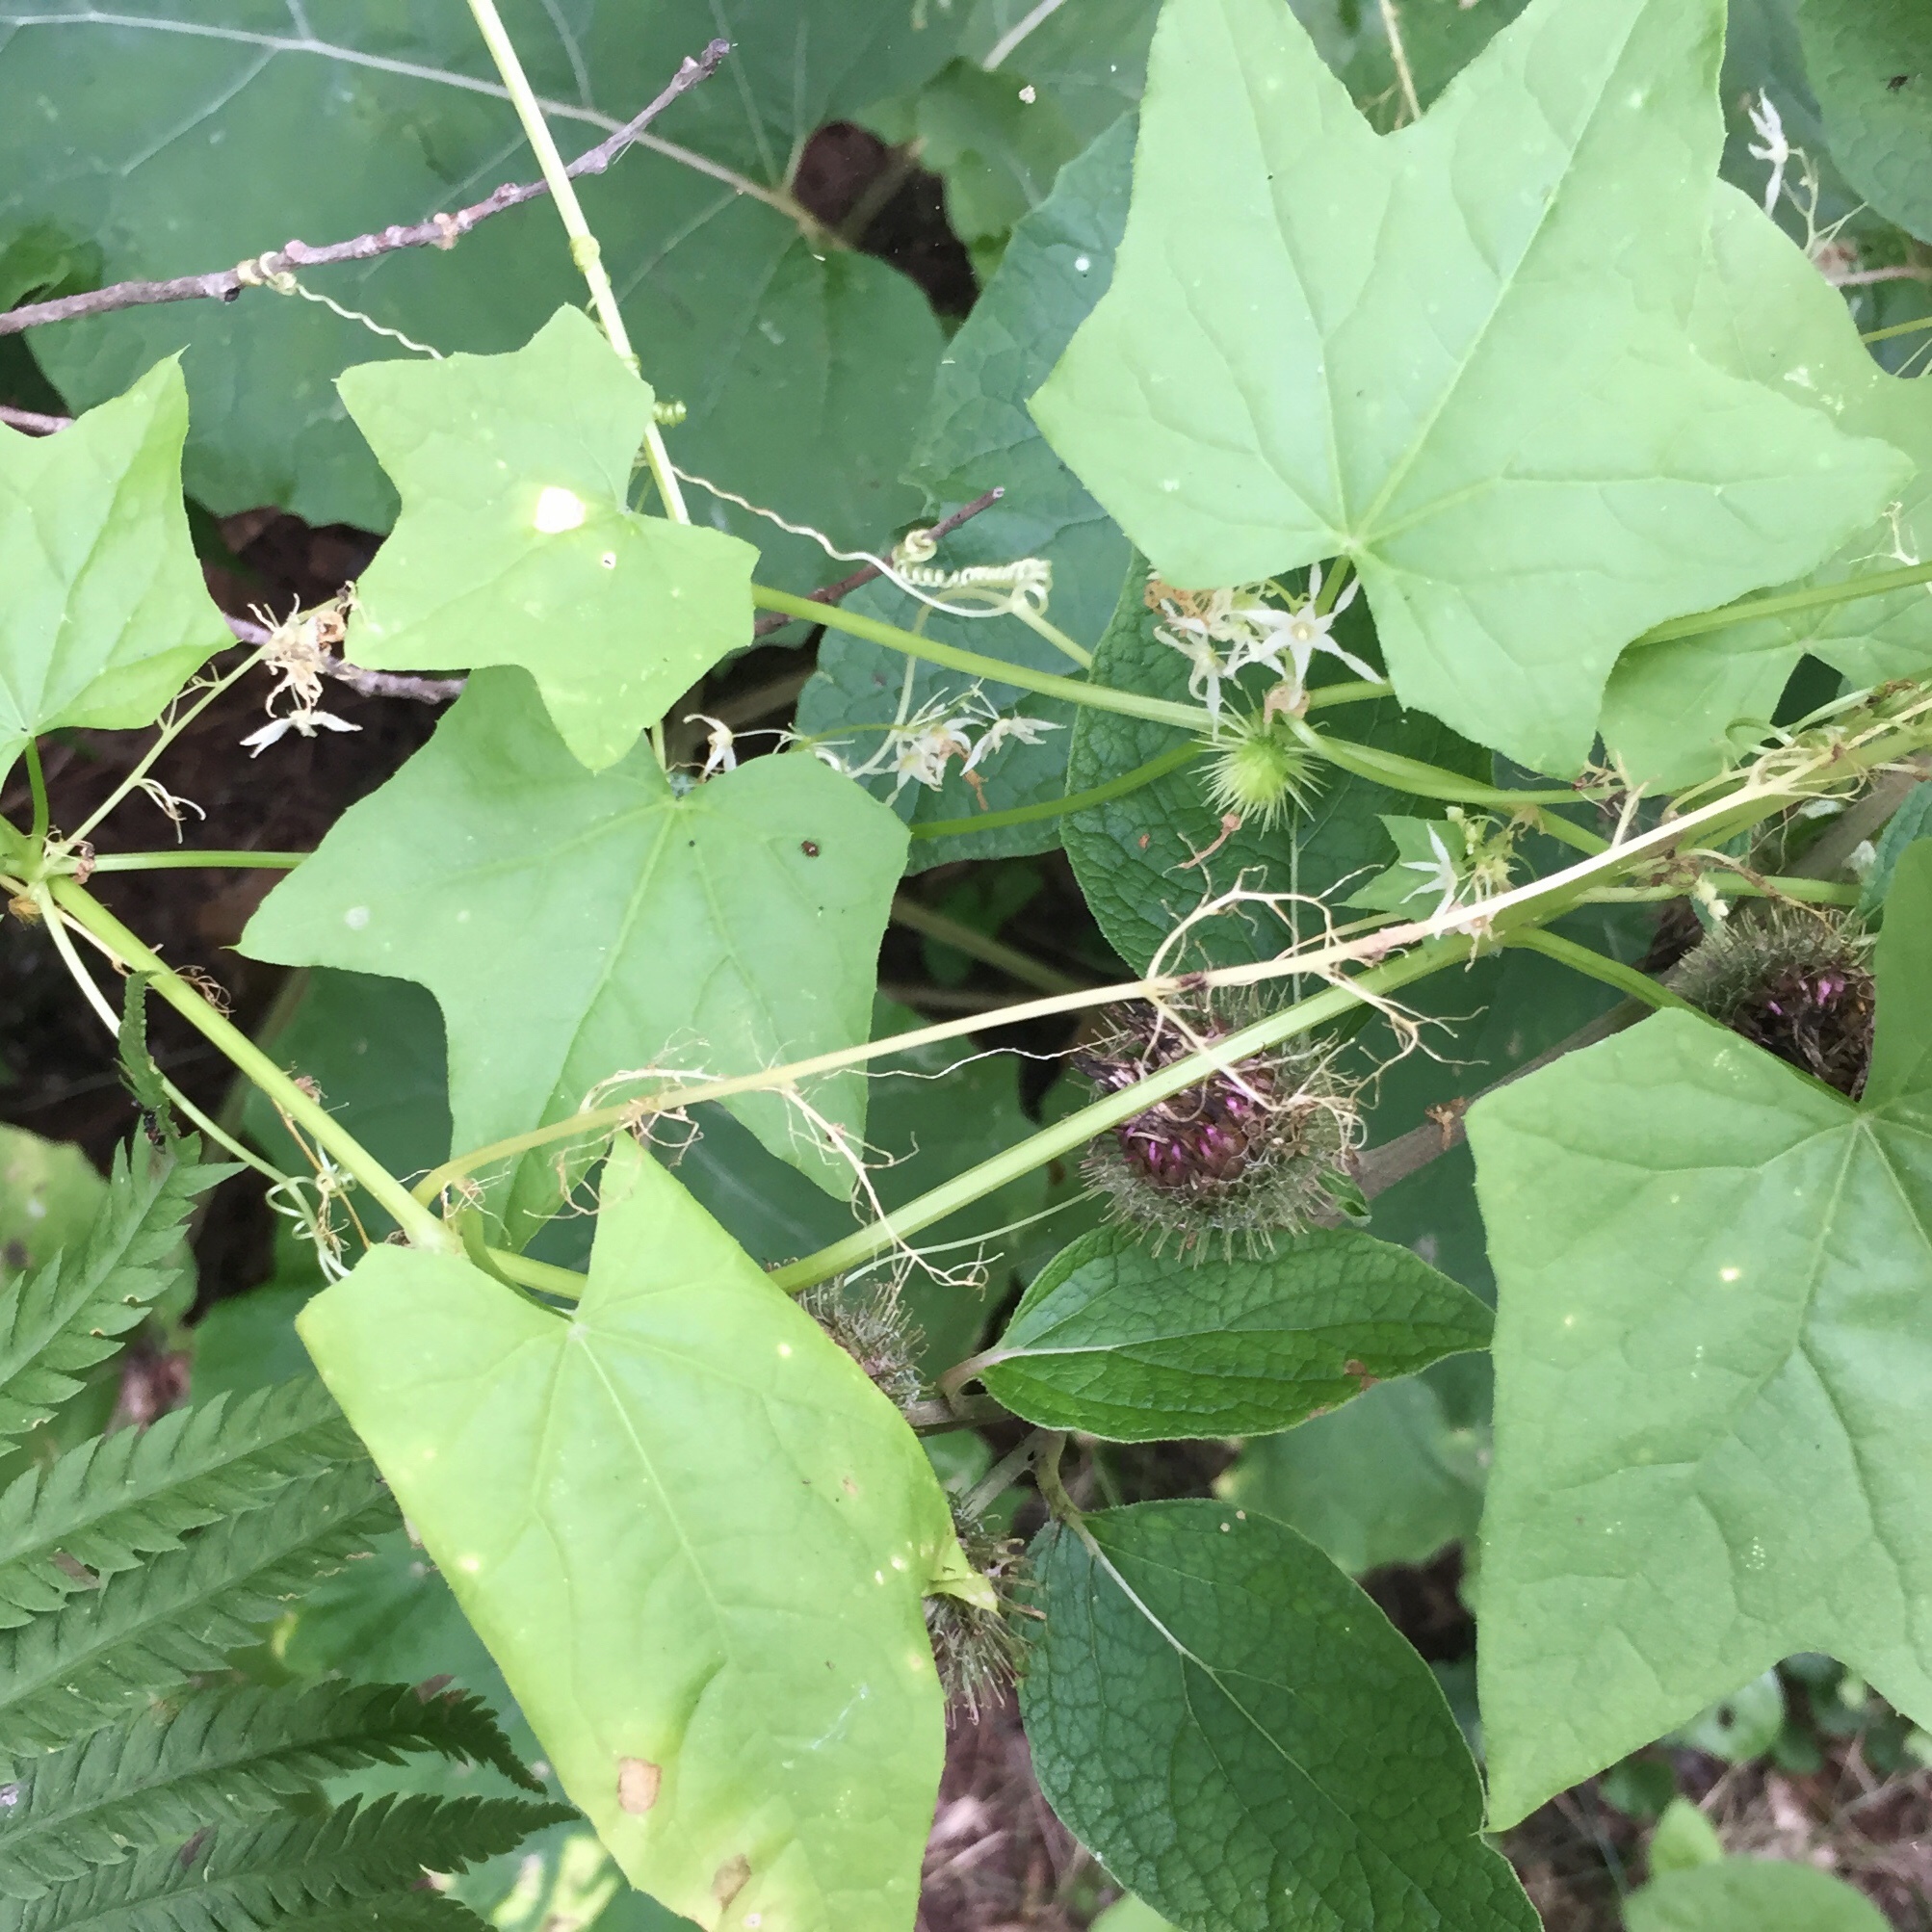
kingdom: Plantae
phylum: Tracheophyta
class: Magnoliopsida
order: Cucurbitales
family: Cucurbitaceae
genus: Echinocystis
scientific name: Echinocystis lobata
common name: Wild cucumber
